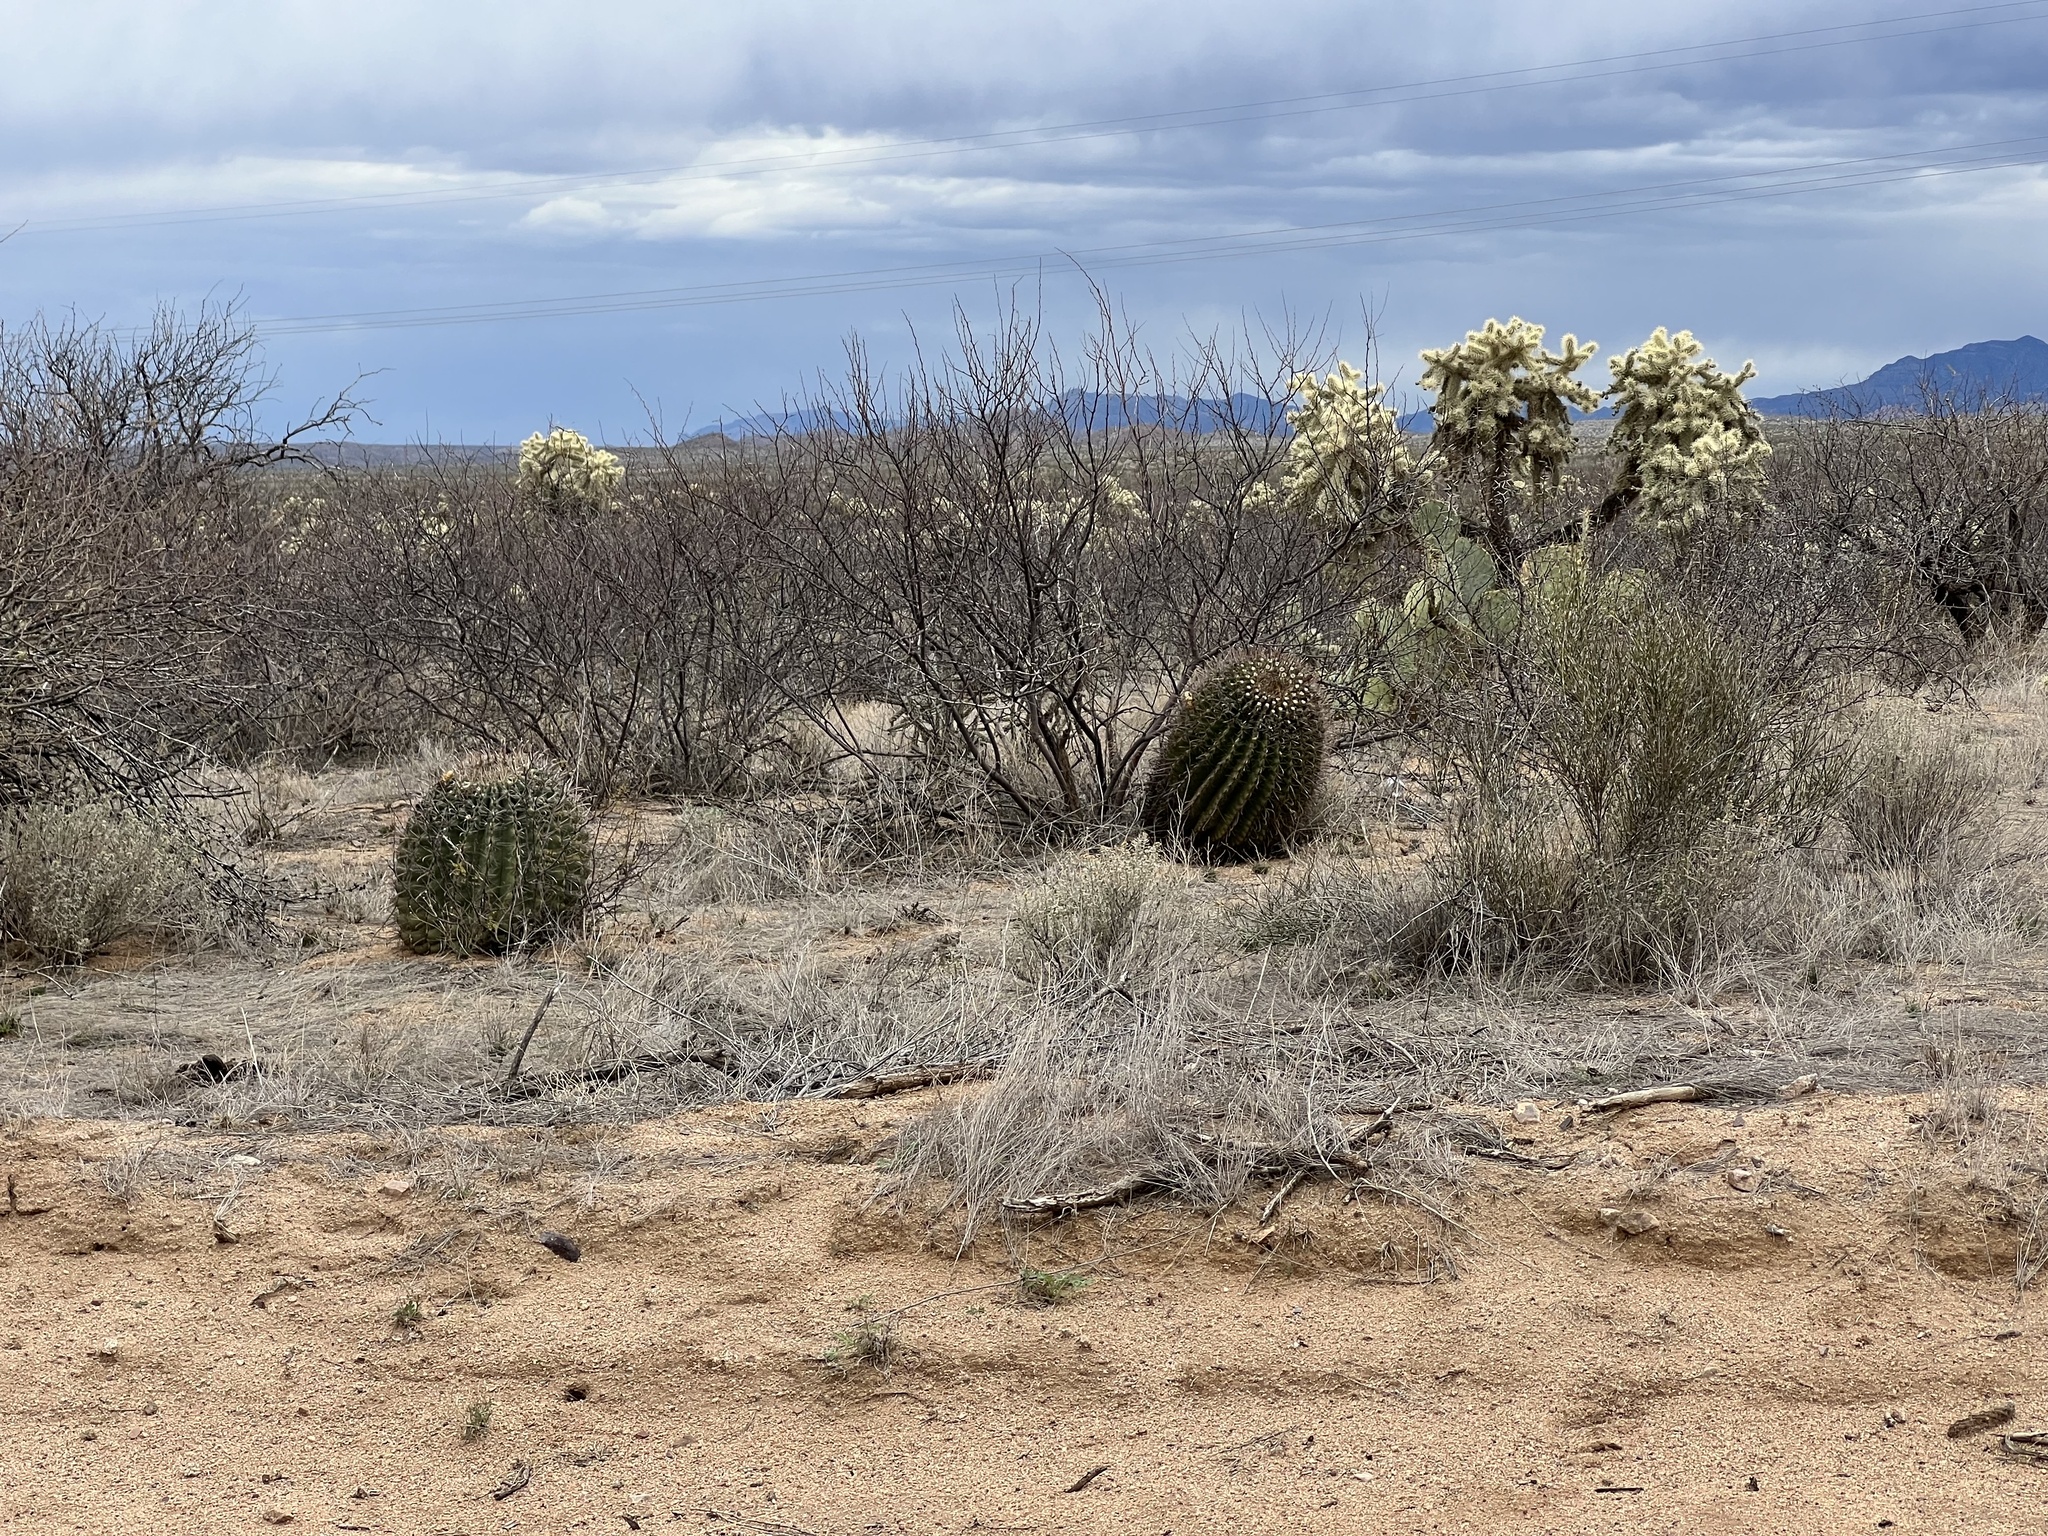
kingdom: Plantae
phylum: Tracheophyta
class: Magnoliopsida
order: Caryophyllales
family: Cactaceae
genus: Ferocactus
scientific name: Ferocactus wislizeni
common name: Candy barrel cactus
